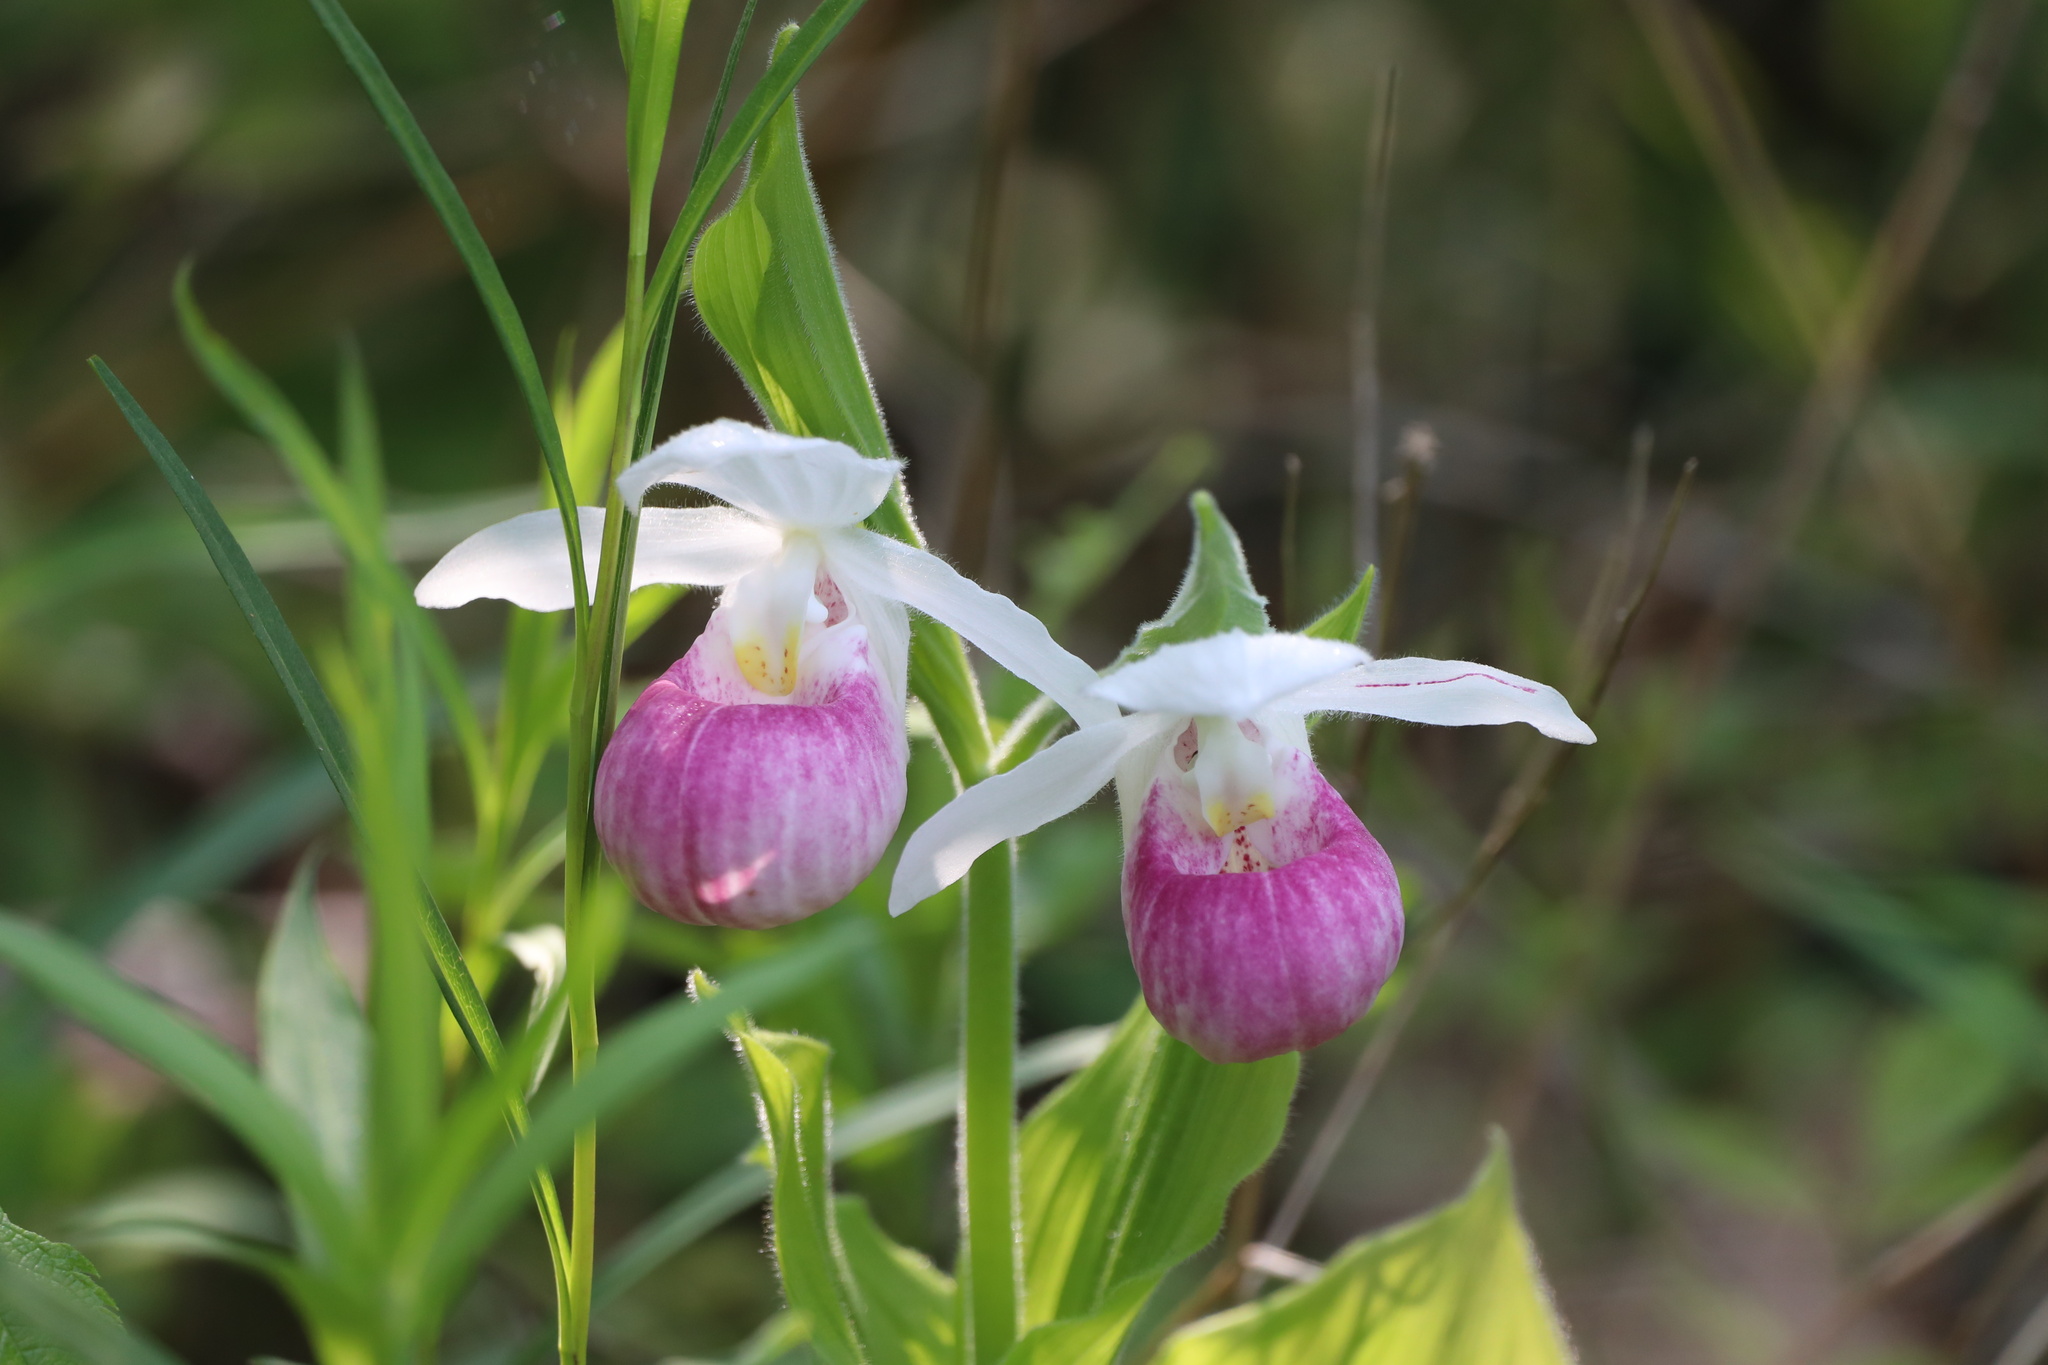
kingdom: Plantae
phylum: Tracheophyta
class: Liliopsida
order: Asparagales
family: Orchidaceae
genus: Cypripedium
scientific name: Cypripedium reginae
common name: Queen lady's-slipper
